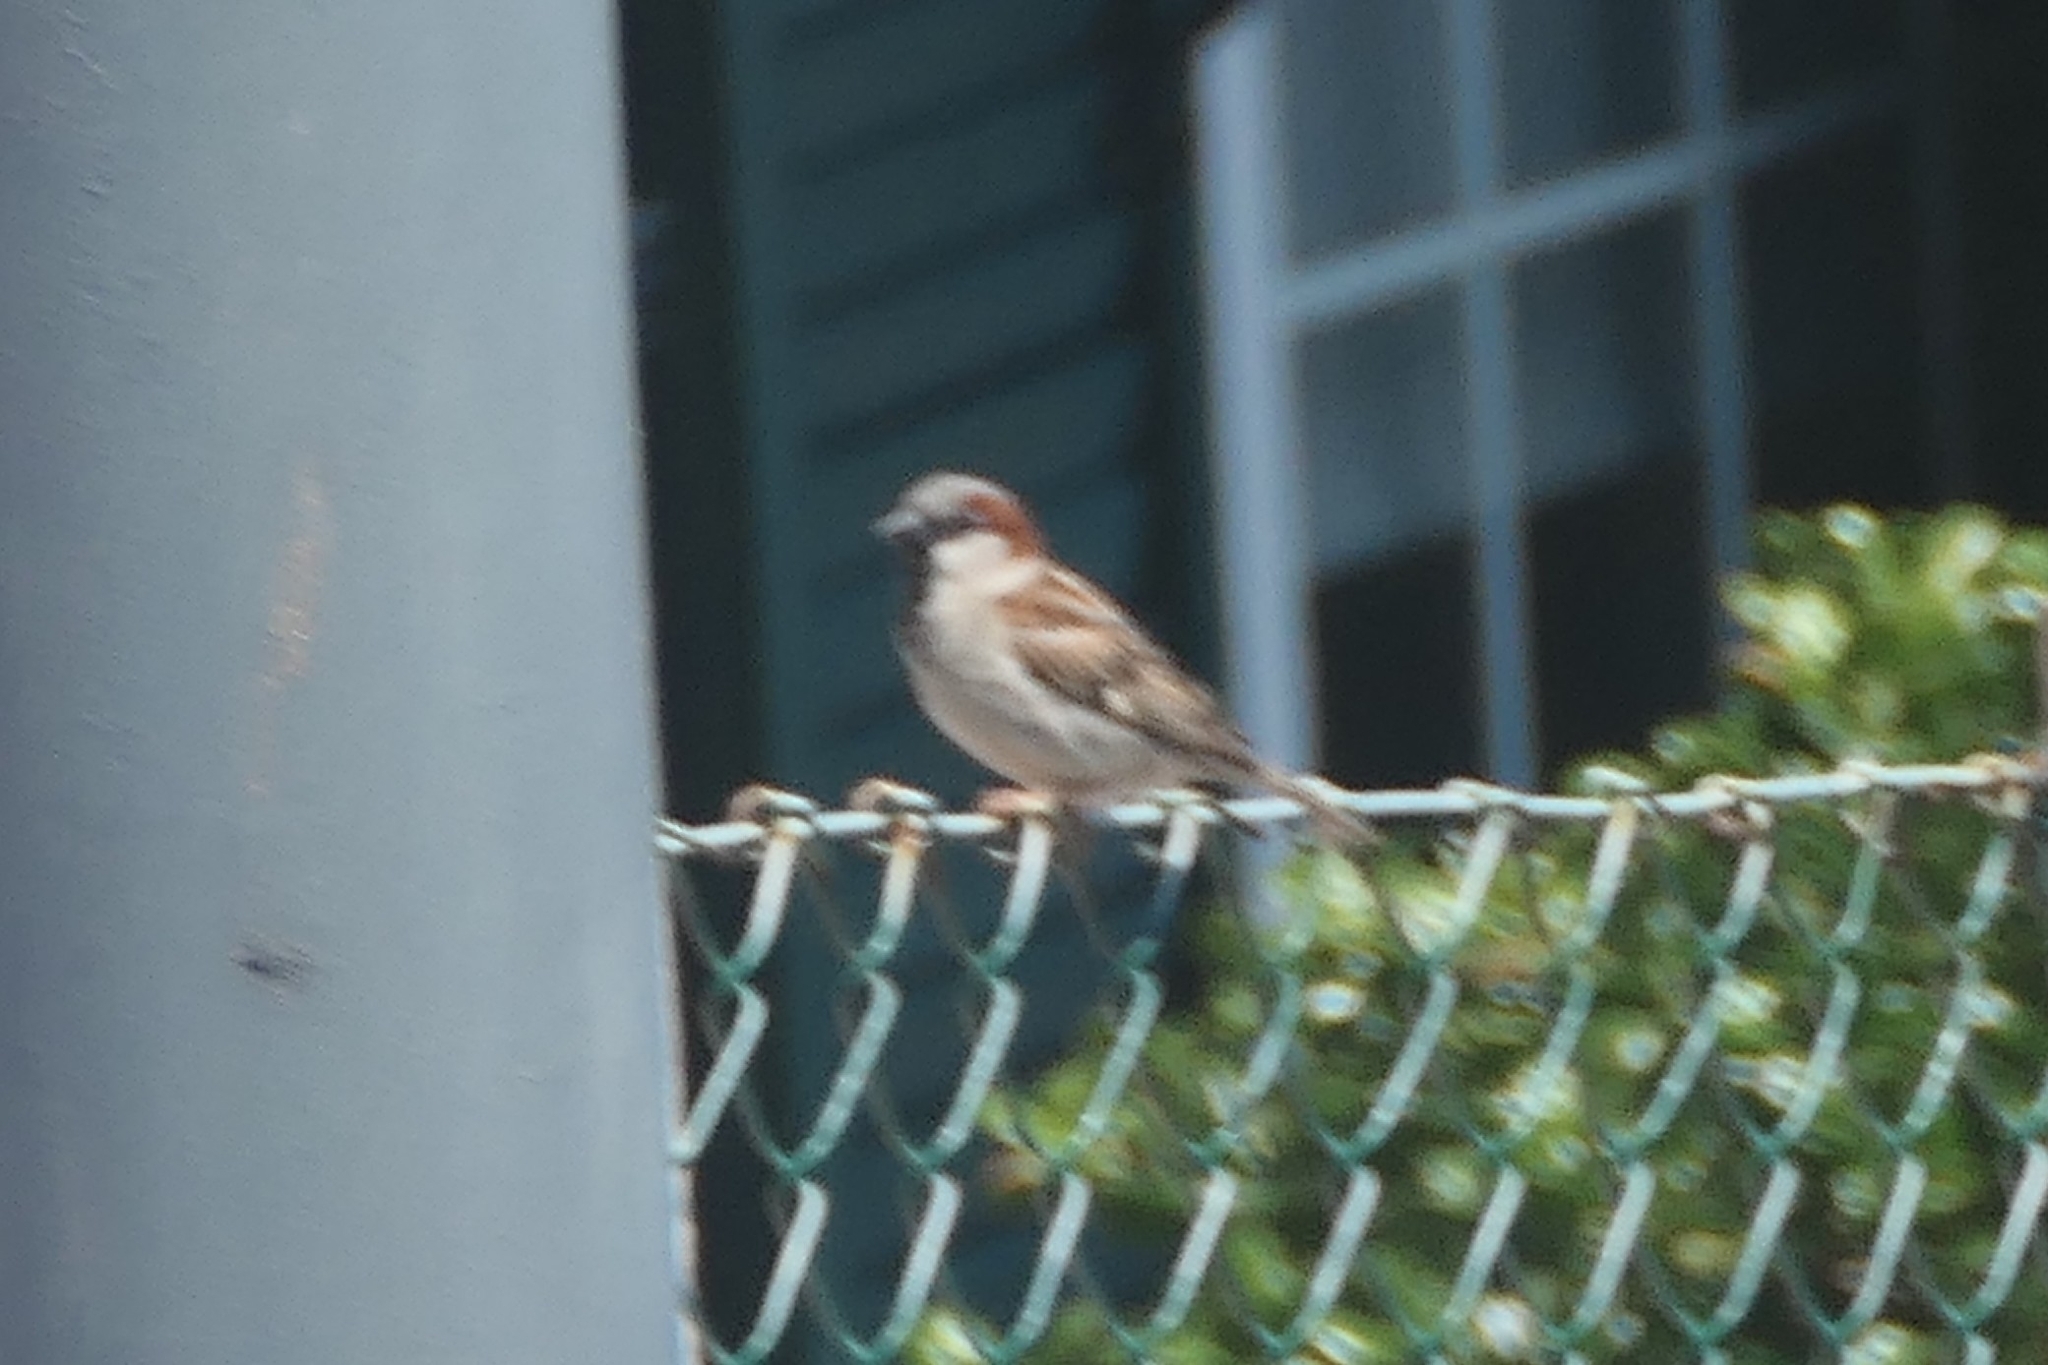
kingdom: Animalia
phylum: Chordata
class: Aves
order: Passeriformes
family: Passeridae
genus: Passer
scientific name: Passer domesticus
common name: House sparrow
